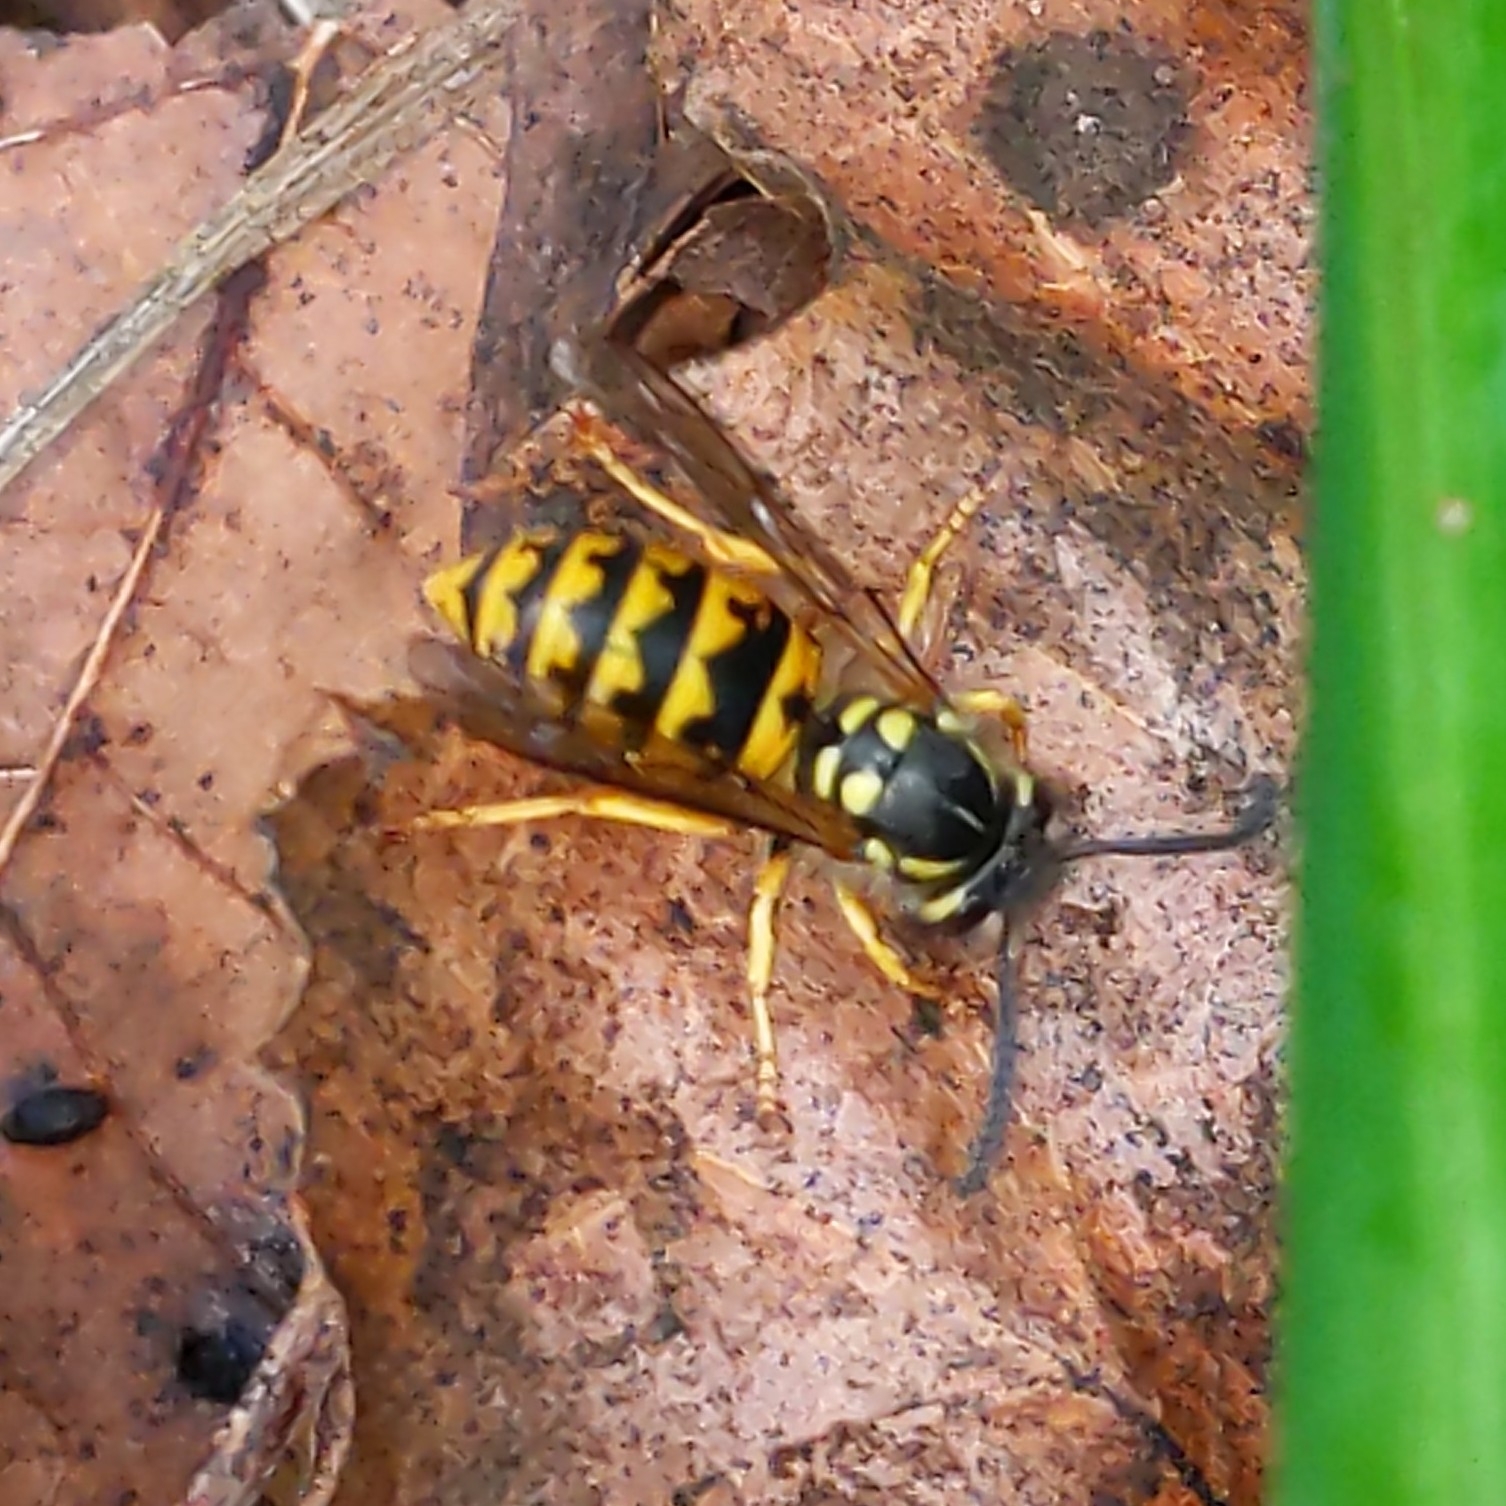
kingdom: Animalia
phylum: Arthropoda
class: Insecta
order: Hymenoptera
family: Vespidae
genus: Vespula
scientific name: Vespula germanica
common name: German wasp
